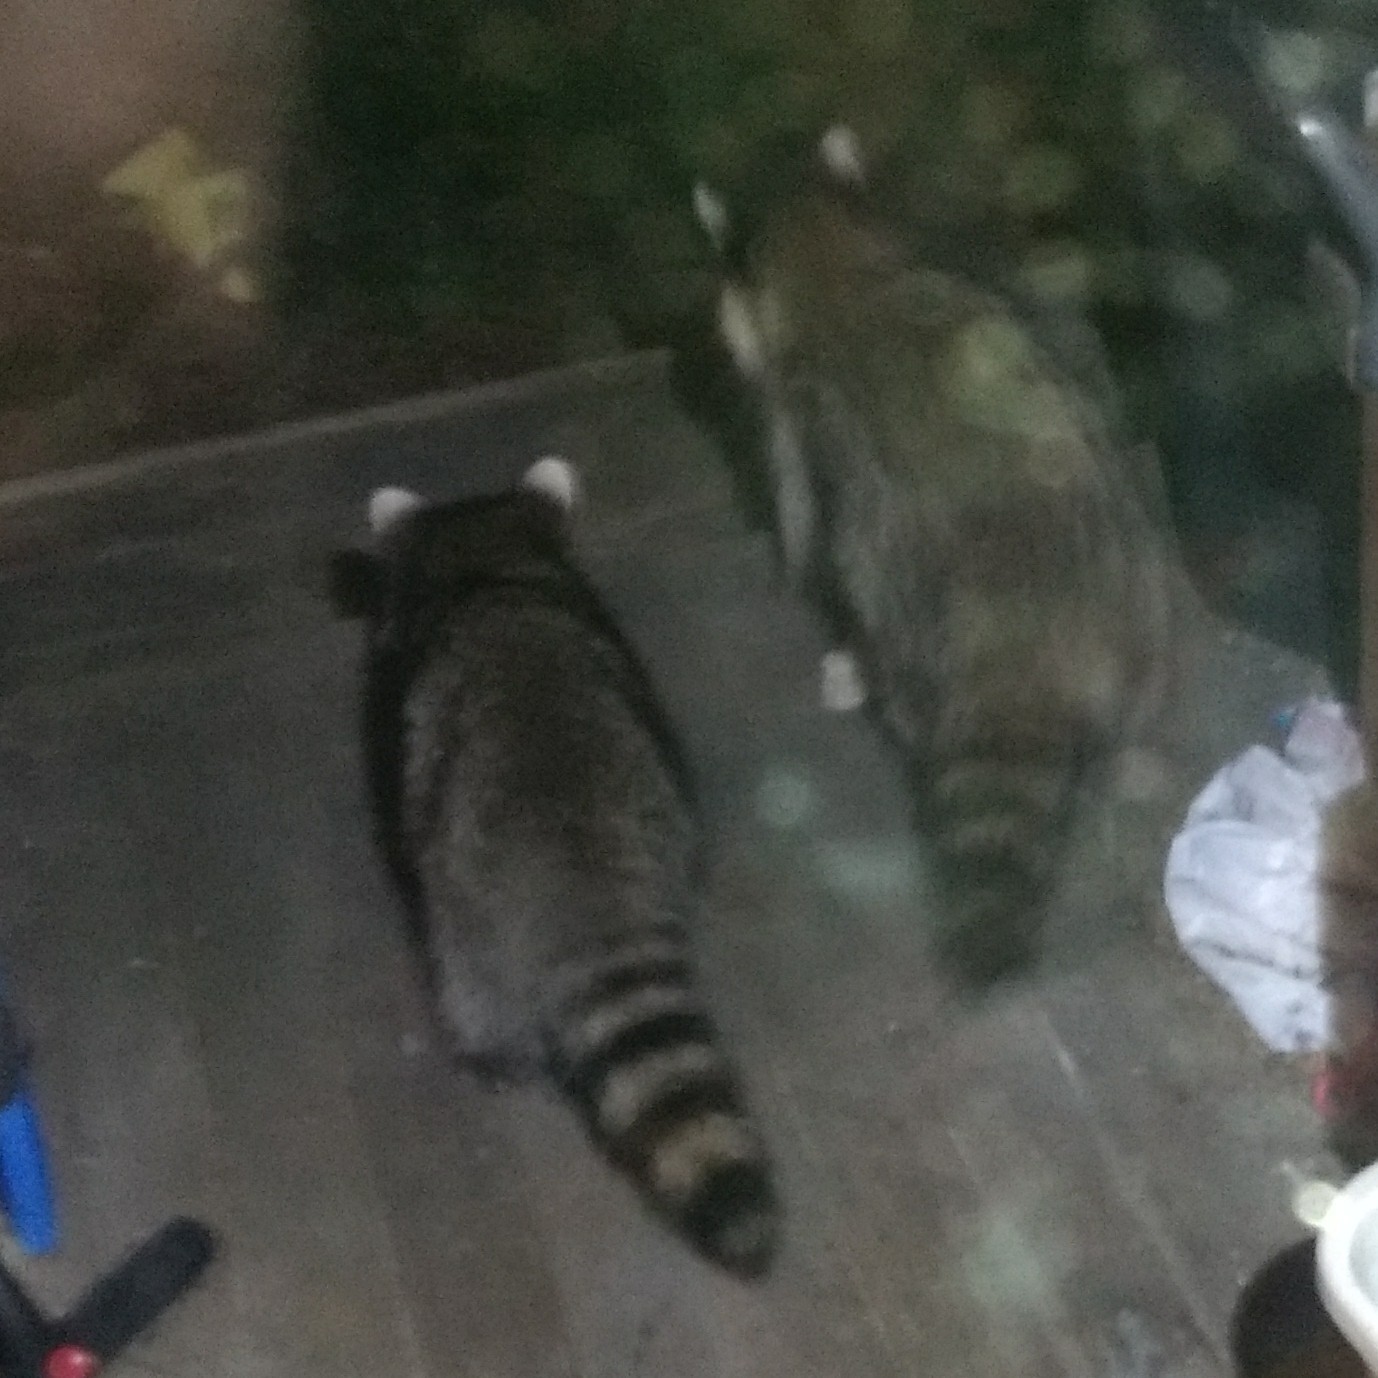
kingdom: Animalia
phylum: Chordata
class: Mammalia
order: Carnivora
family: Procyonidae
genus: Procyon
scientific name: Procyon lotor
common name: Raccoon
